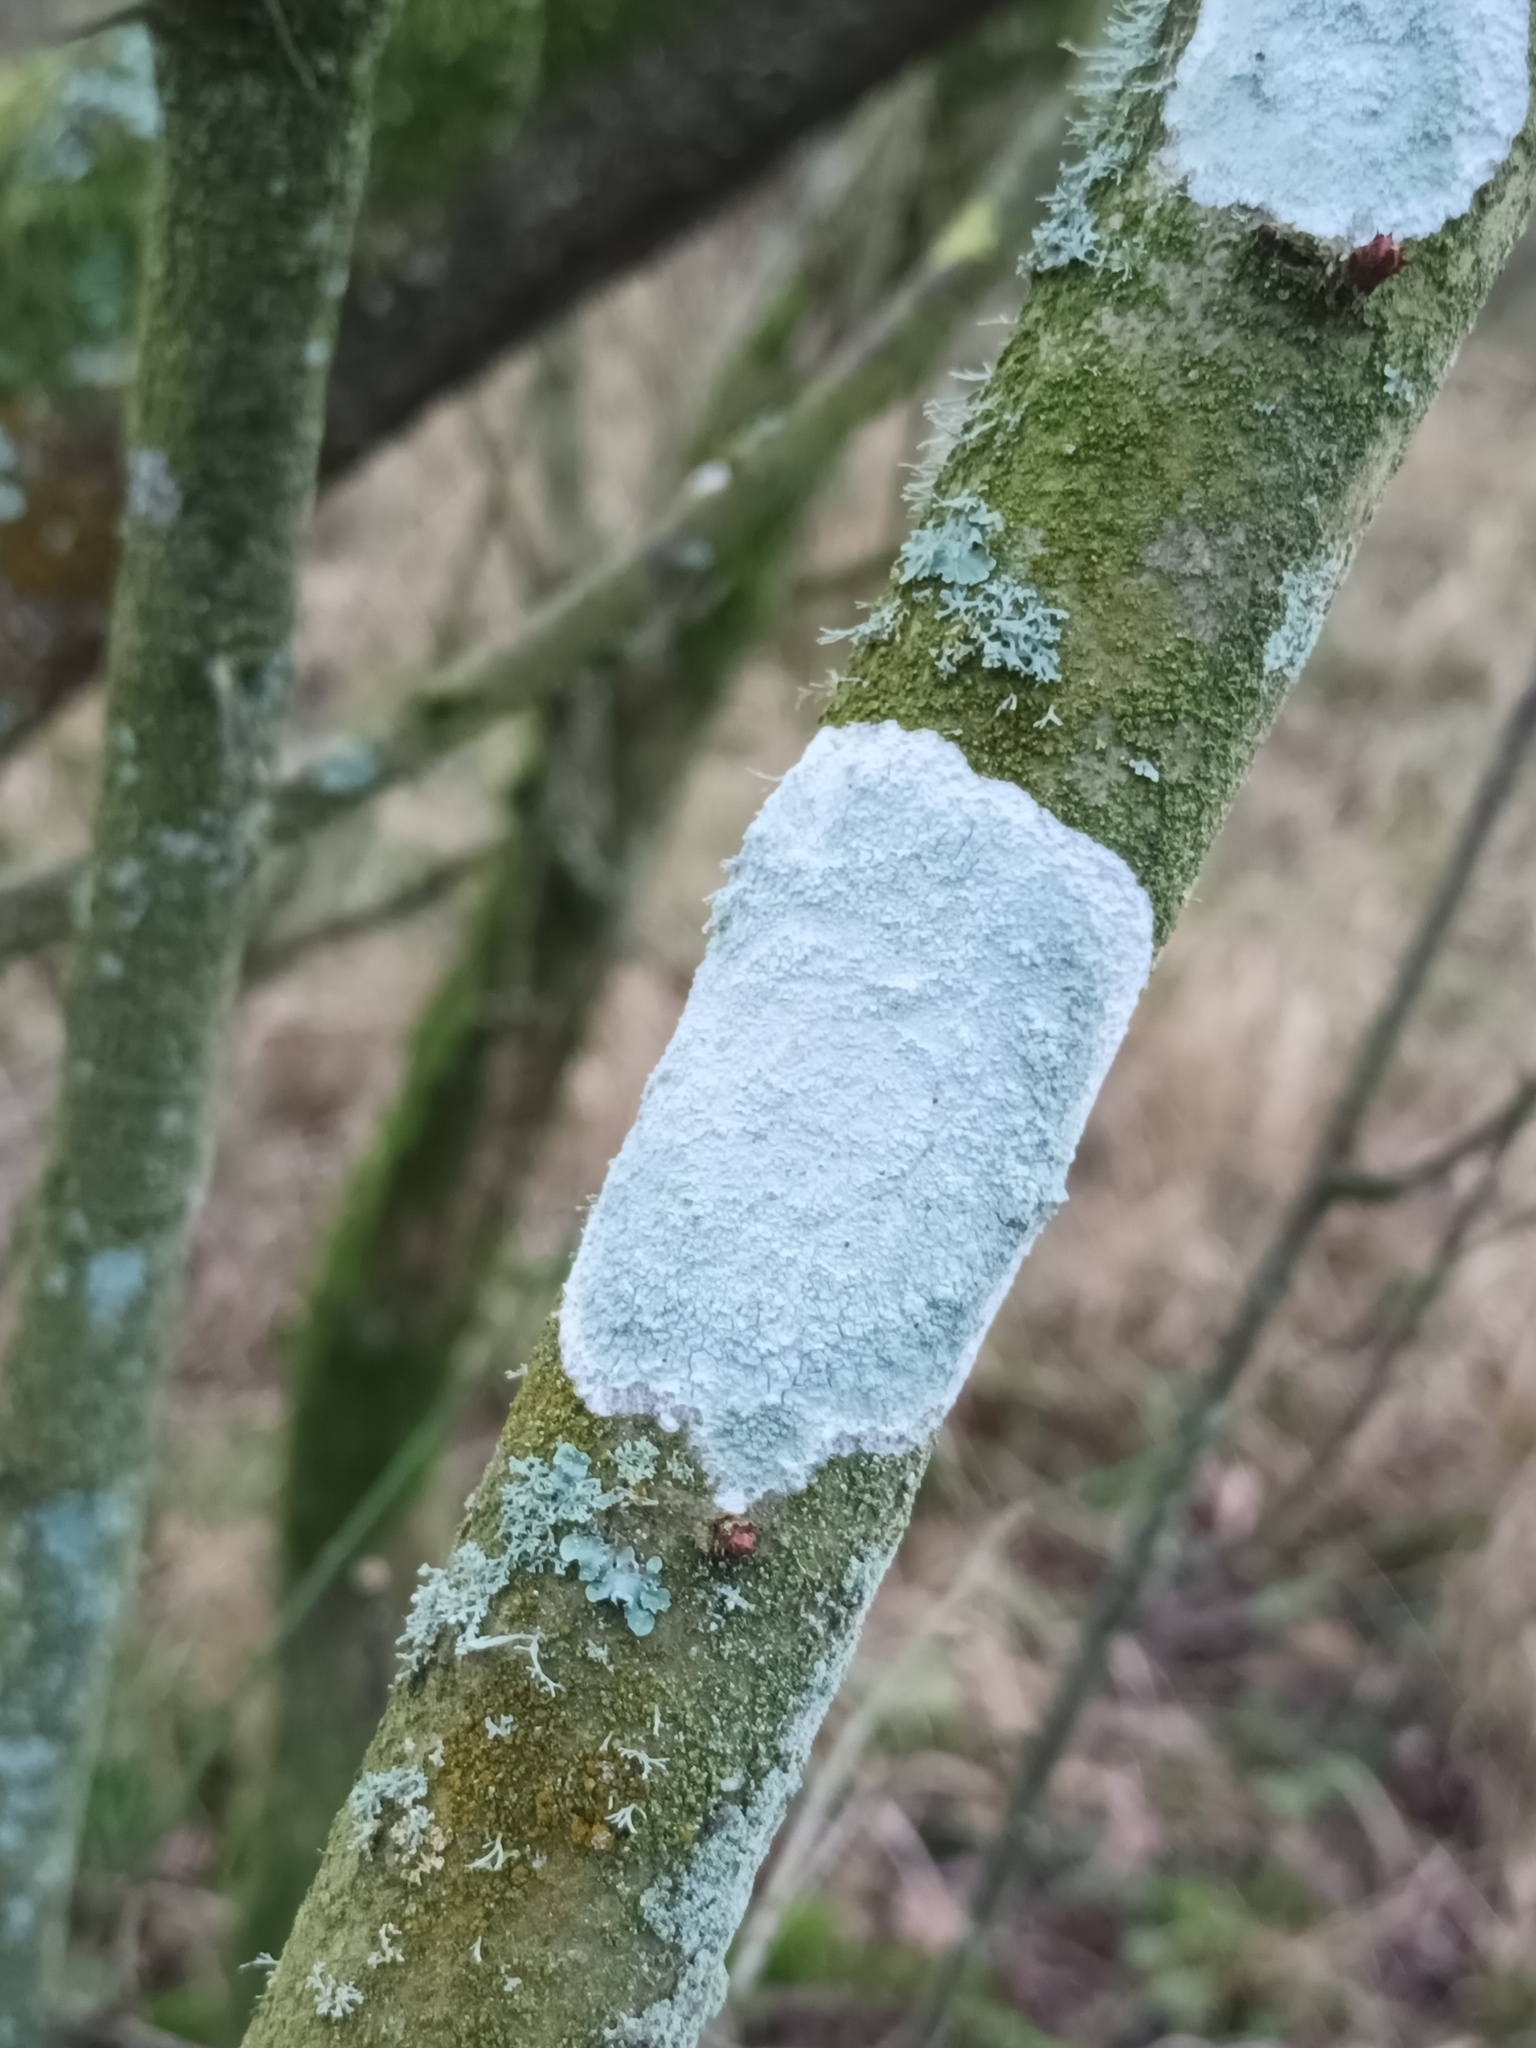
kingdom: Fungi
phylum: Ascomycota
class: Lecanoromycetes
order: Ostropales
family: Phlyctidaceae
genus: Phlyctis
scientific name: Phlyctis argena
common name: Whitewash lichen
